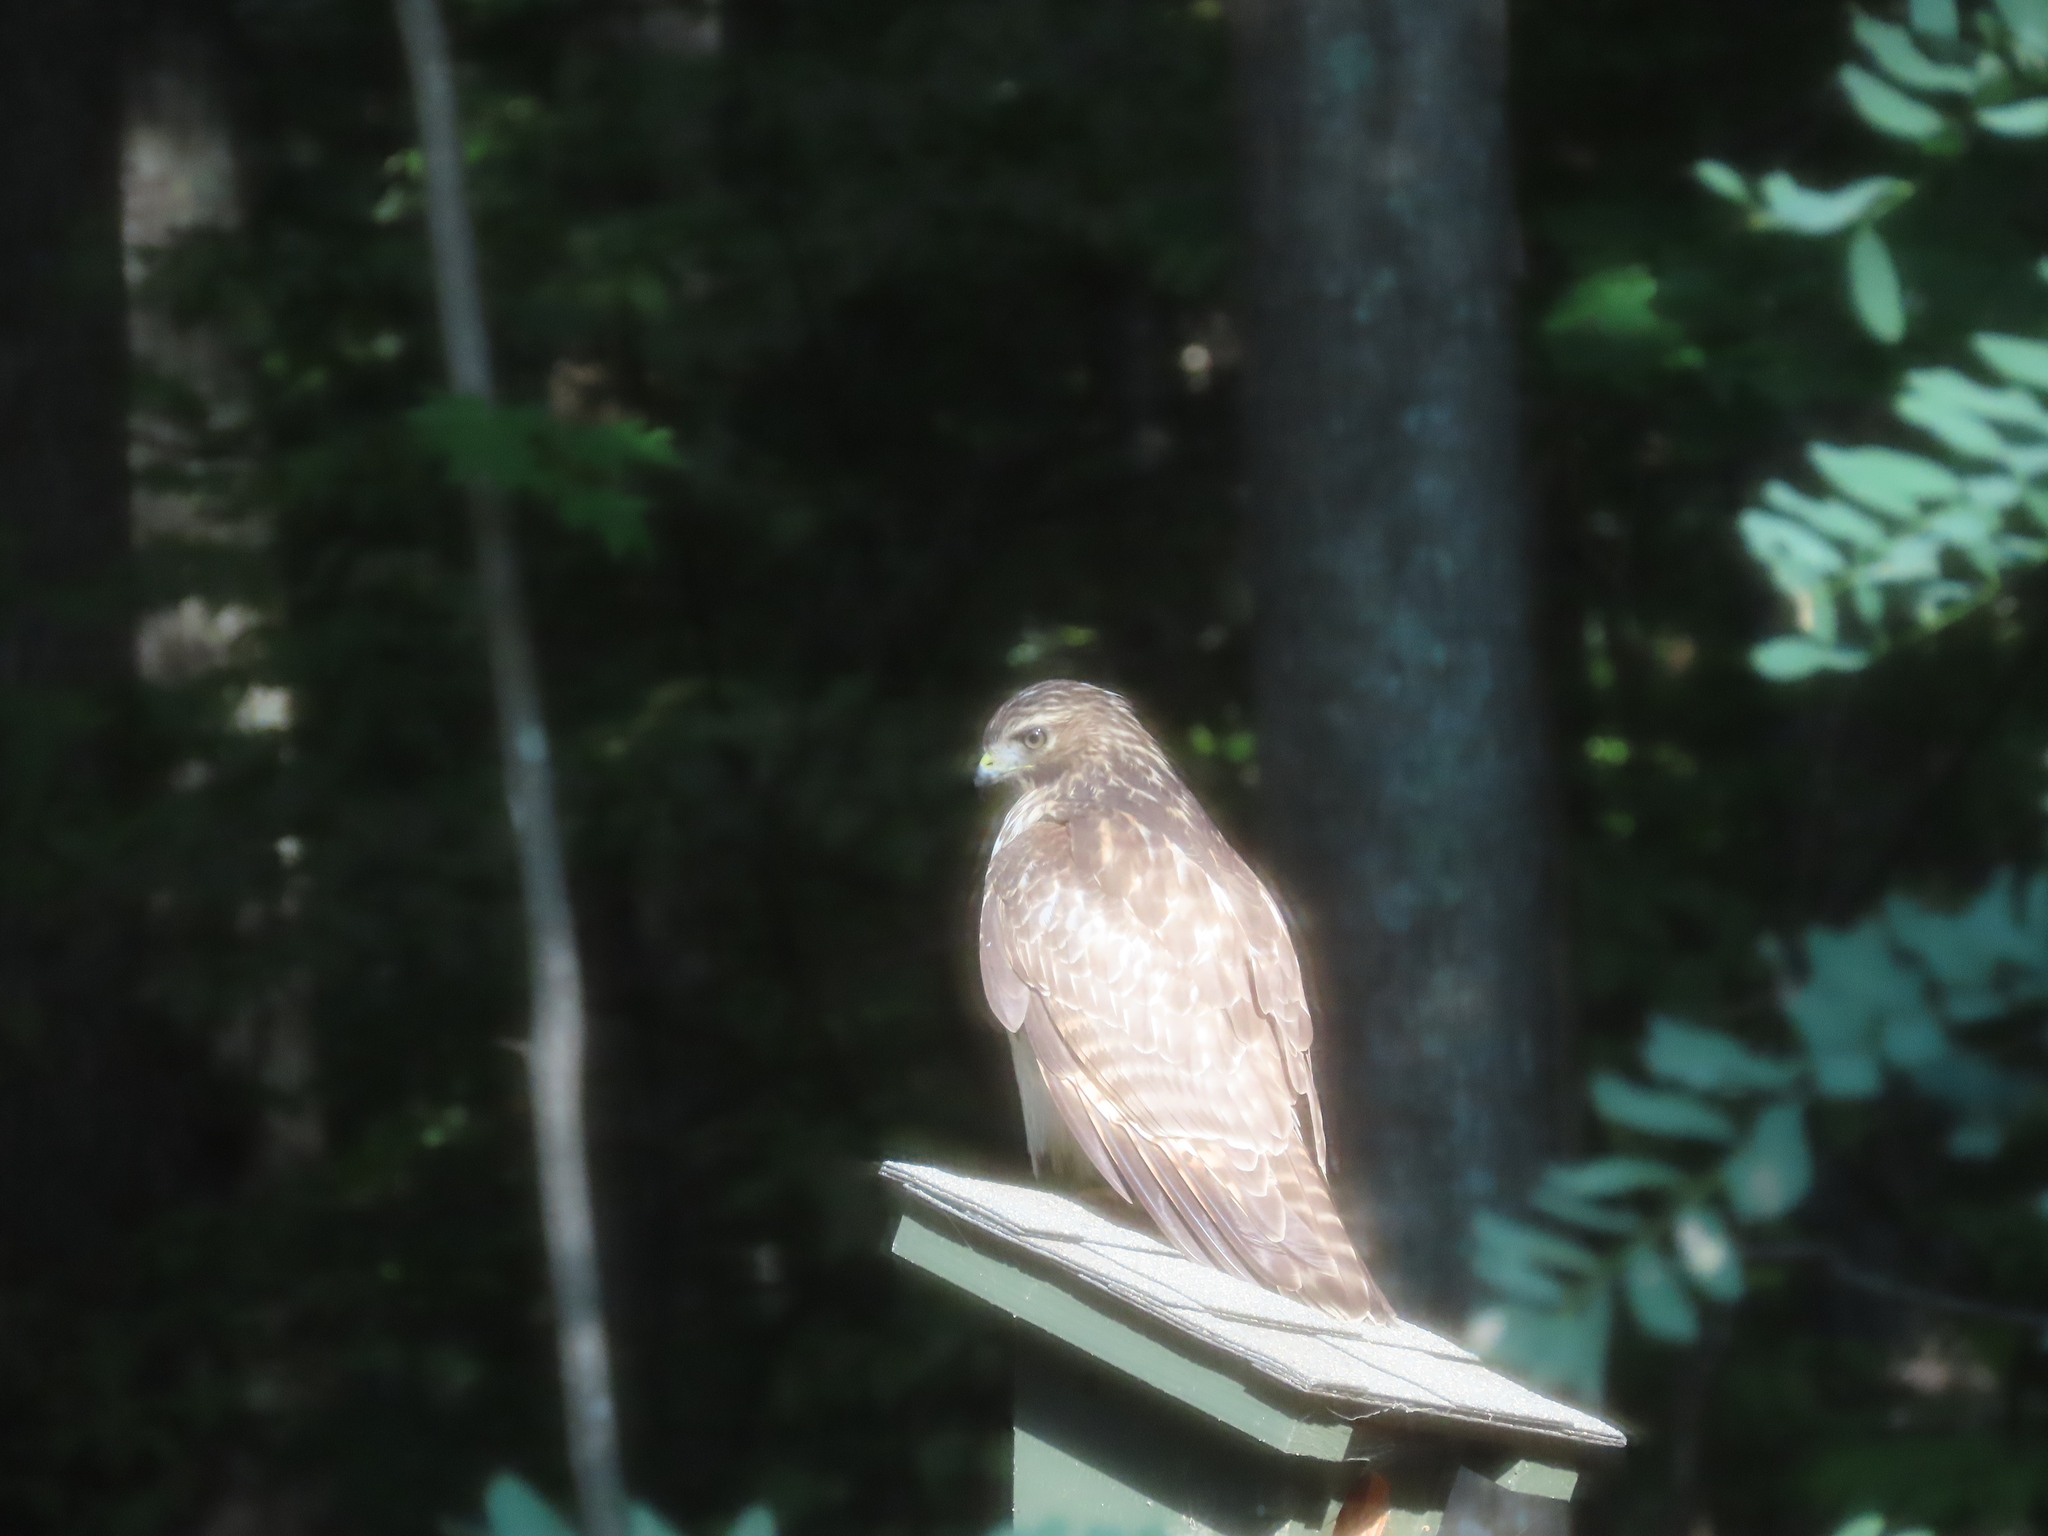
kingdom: Animalia
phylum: Chordata
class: Aves
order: Accipitriformes
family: Accipitridae
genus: Buteo
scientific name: Buteo lineatus
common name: Red-shouldered hawk
